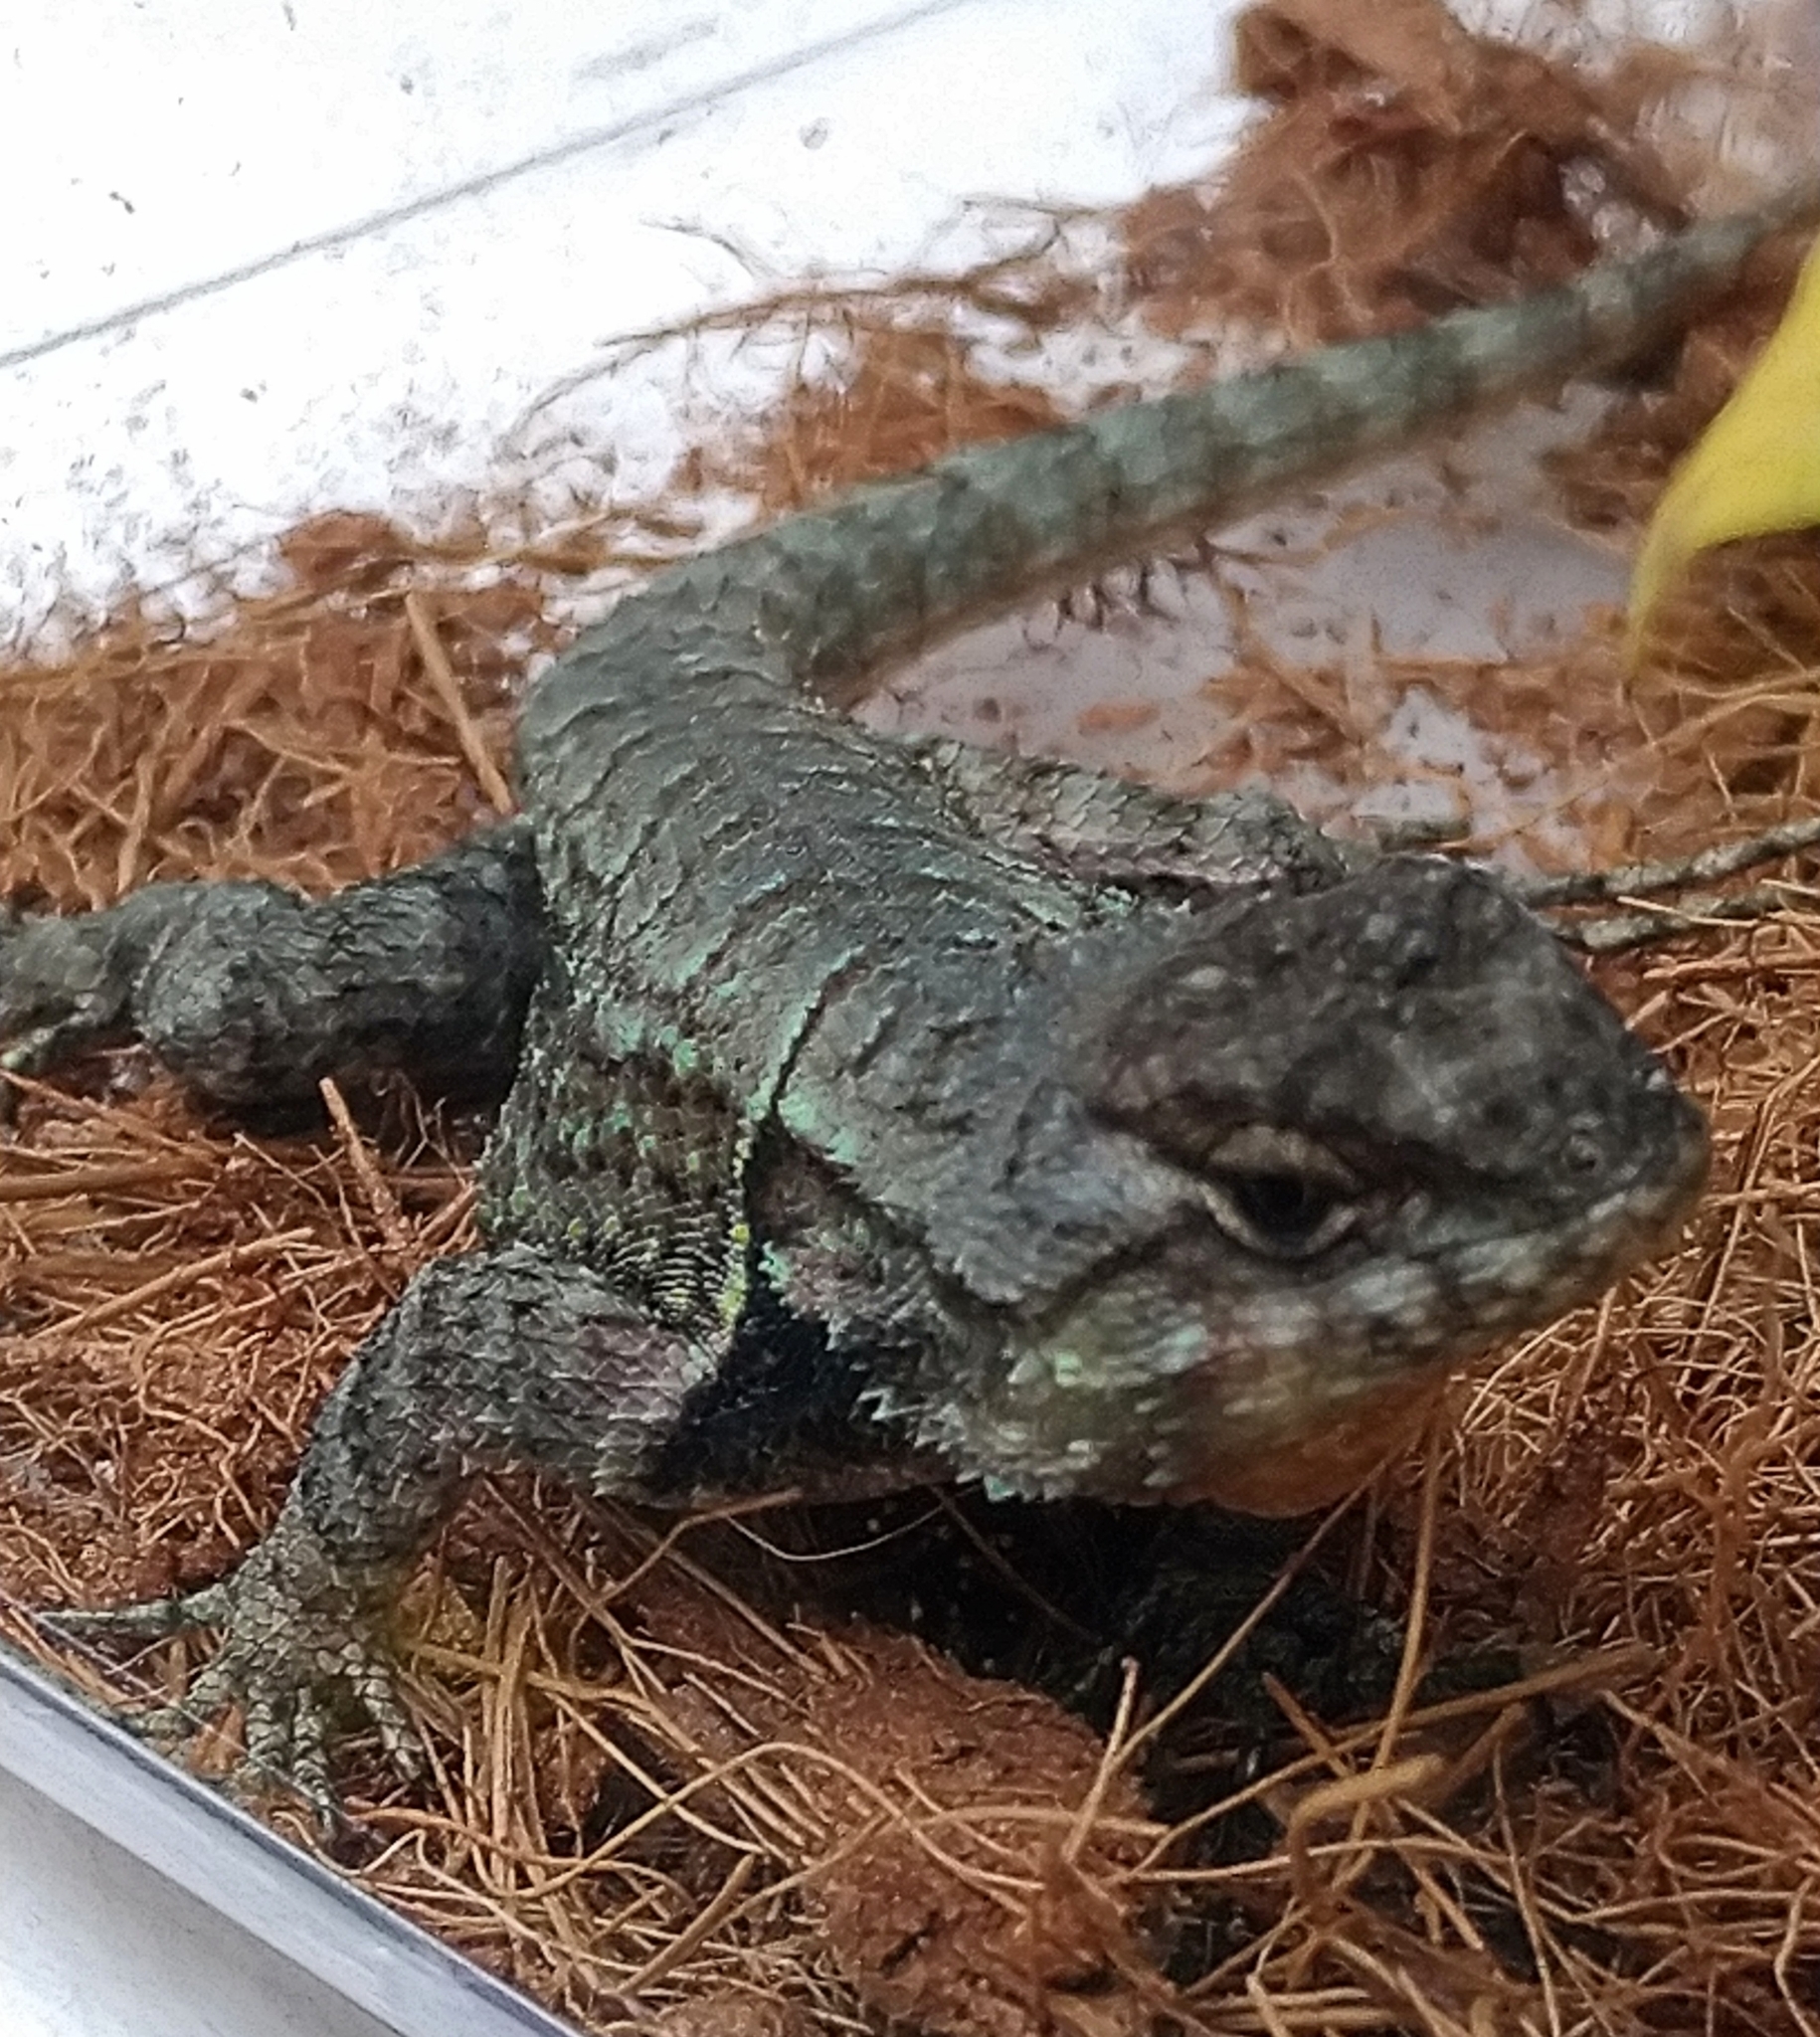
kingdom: Animalia
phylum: Chordata
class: Squamata
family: Phrynosomatidae
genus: Sceloporus
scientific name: Sceloporus grammicus
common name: Mesquite lizard
